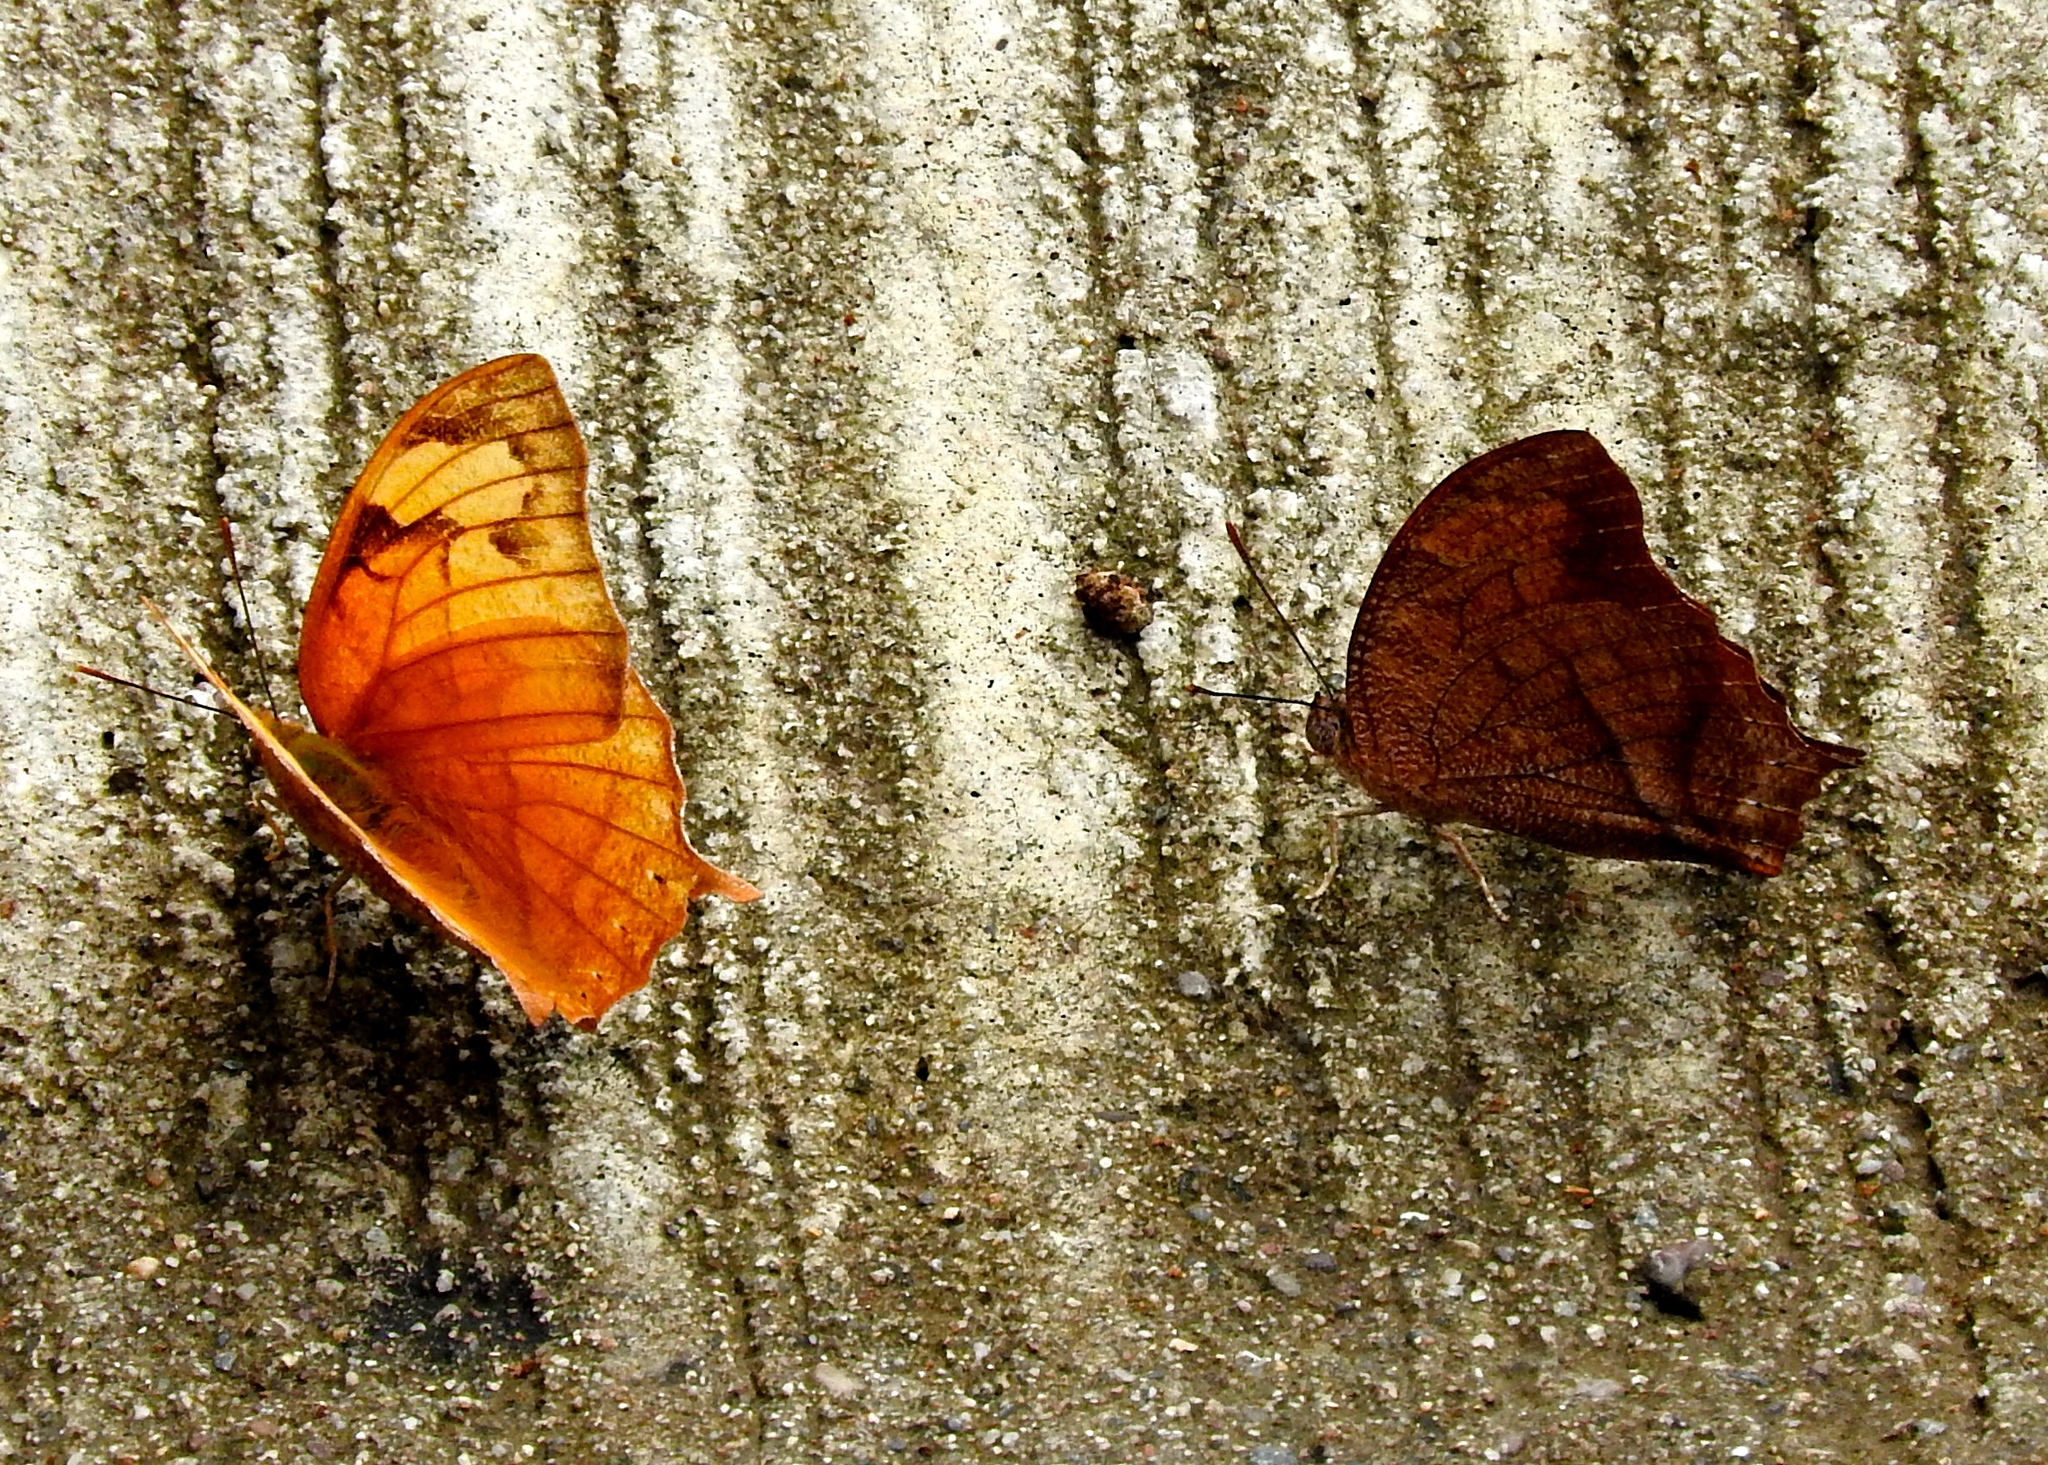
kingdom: Animalia
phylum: Arthropoda
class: Insecta
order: Lepidoptera
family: Nymphalidae
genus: Fountainea
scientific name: Fountainea
